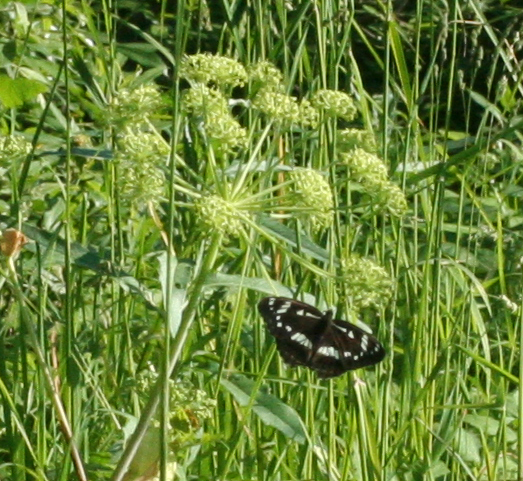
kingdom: Animalia
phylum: Arthropoda
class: Insecta
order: Lepidoptera
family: Nymphalidae
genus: Limenitis
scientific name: Limenitis helmanni
